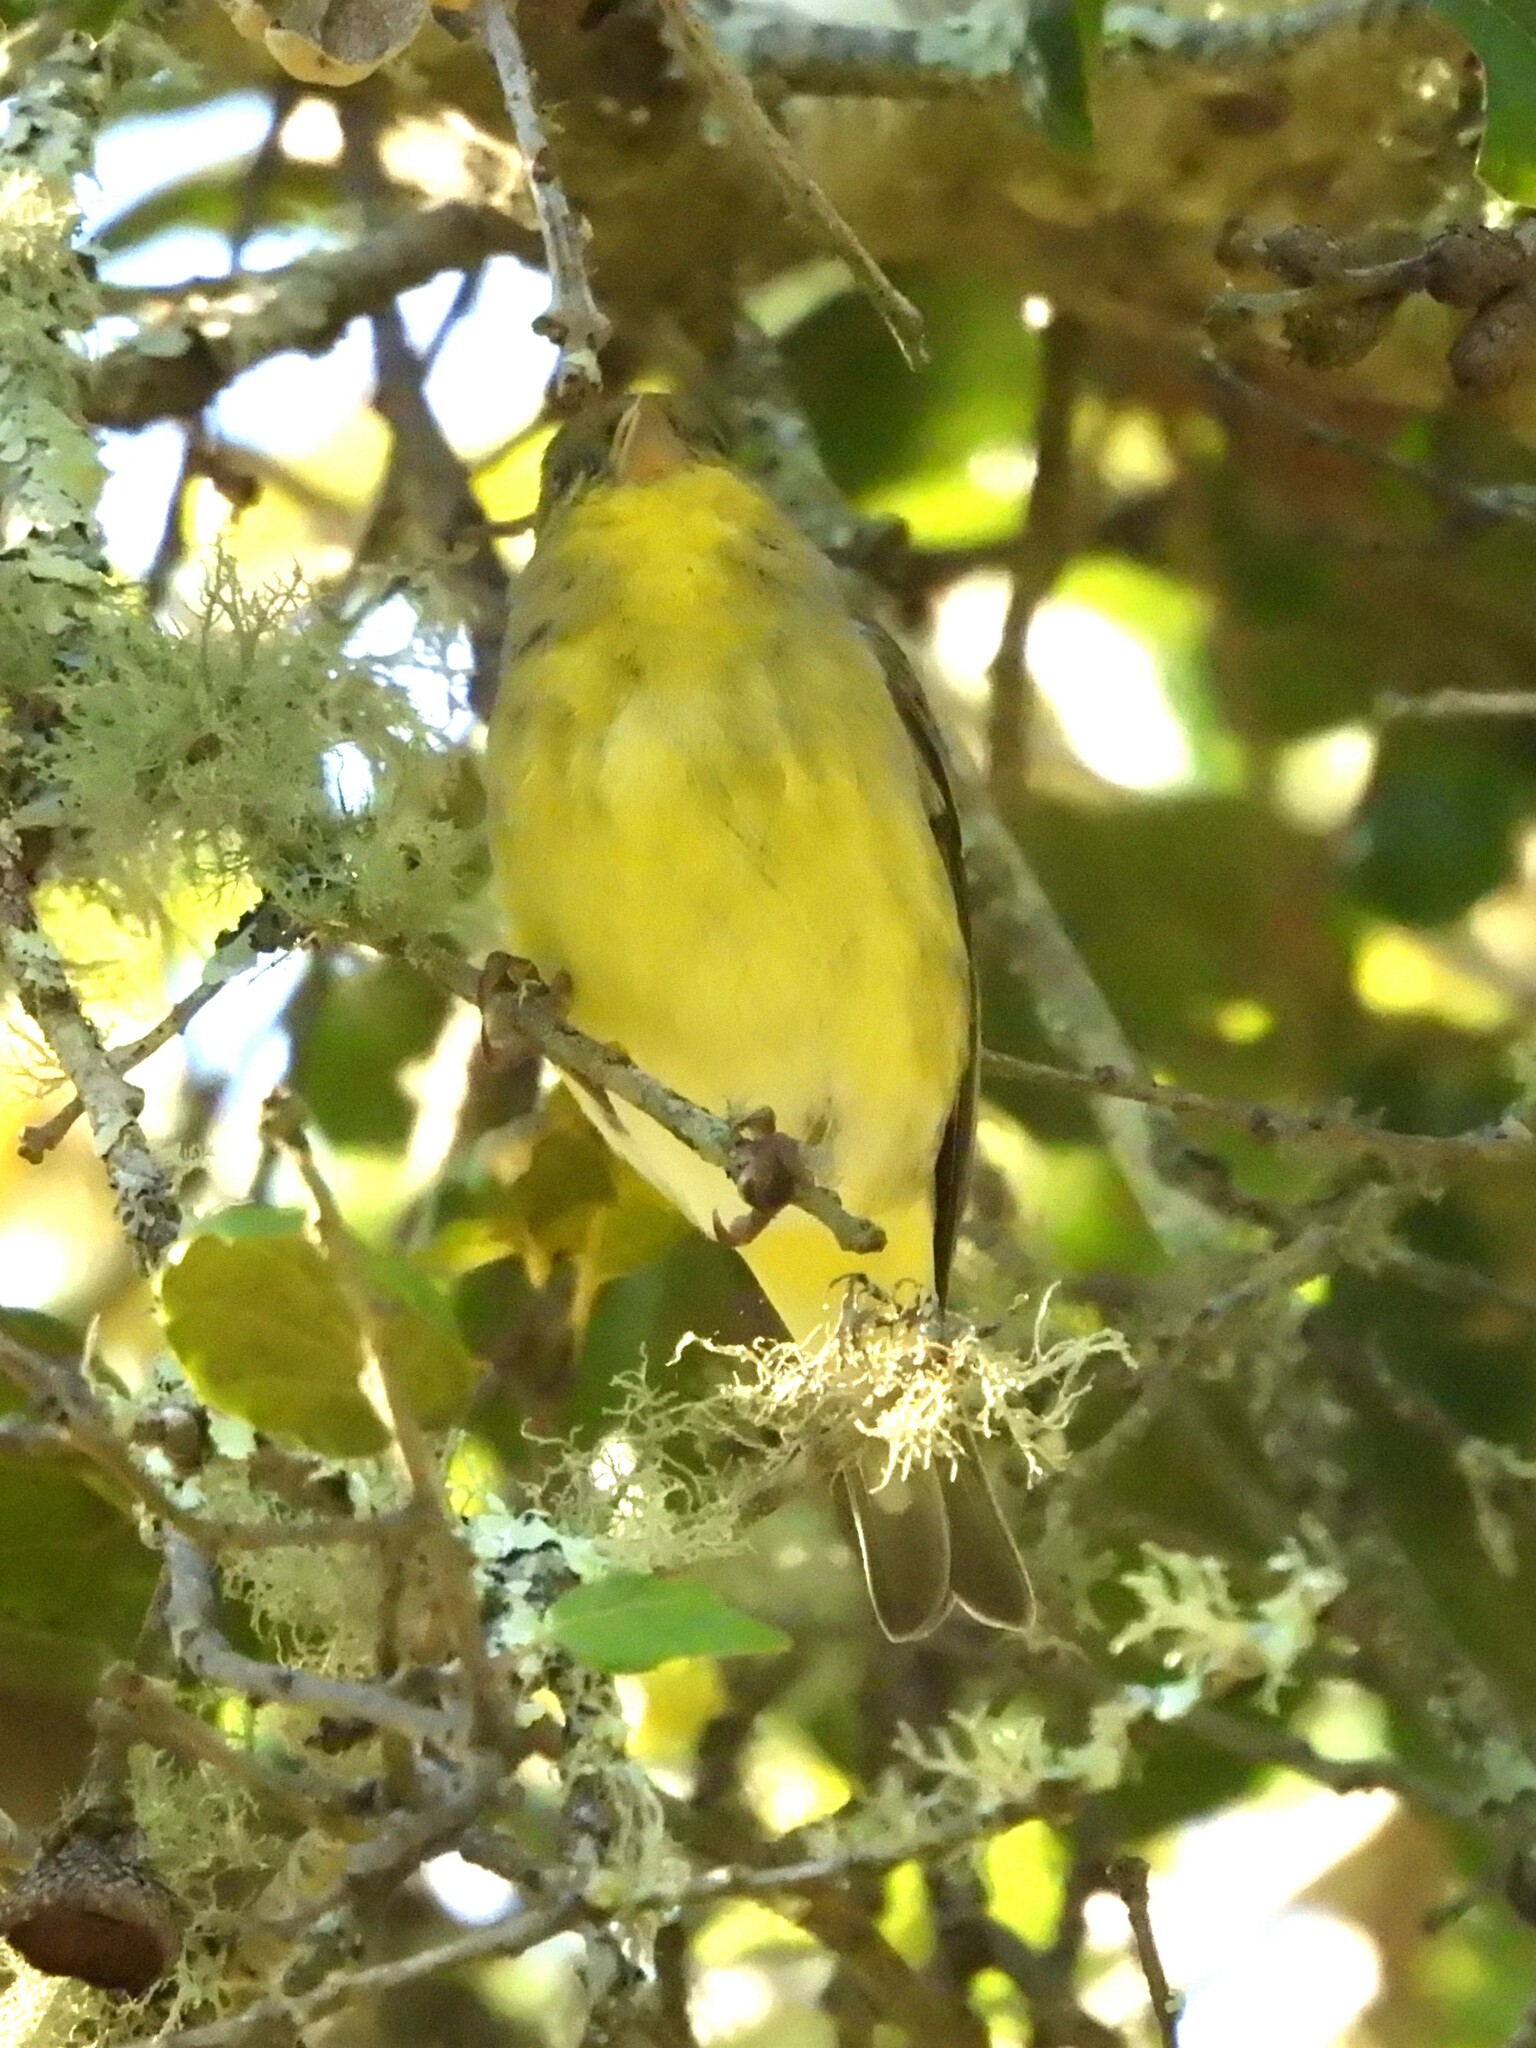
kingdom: Animalia
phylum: Chordata
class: Aves
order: Passeriformes
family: Regulidae
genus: Regulus
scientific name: Regulus calendula
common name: Ruby-crowned kinglet
